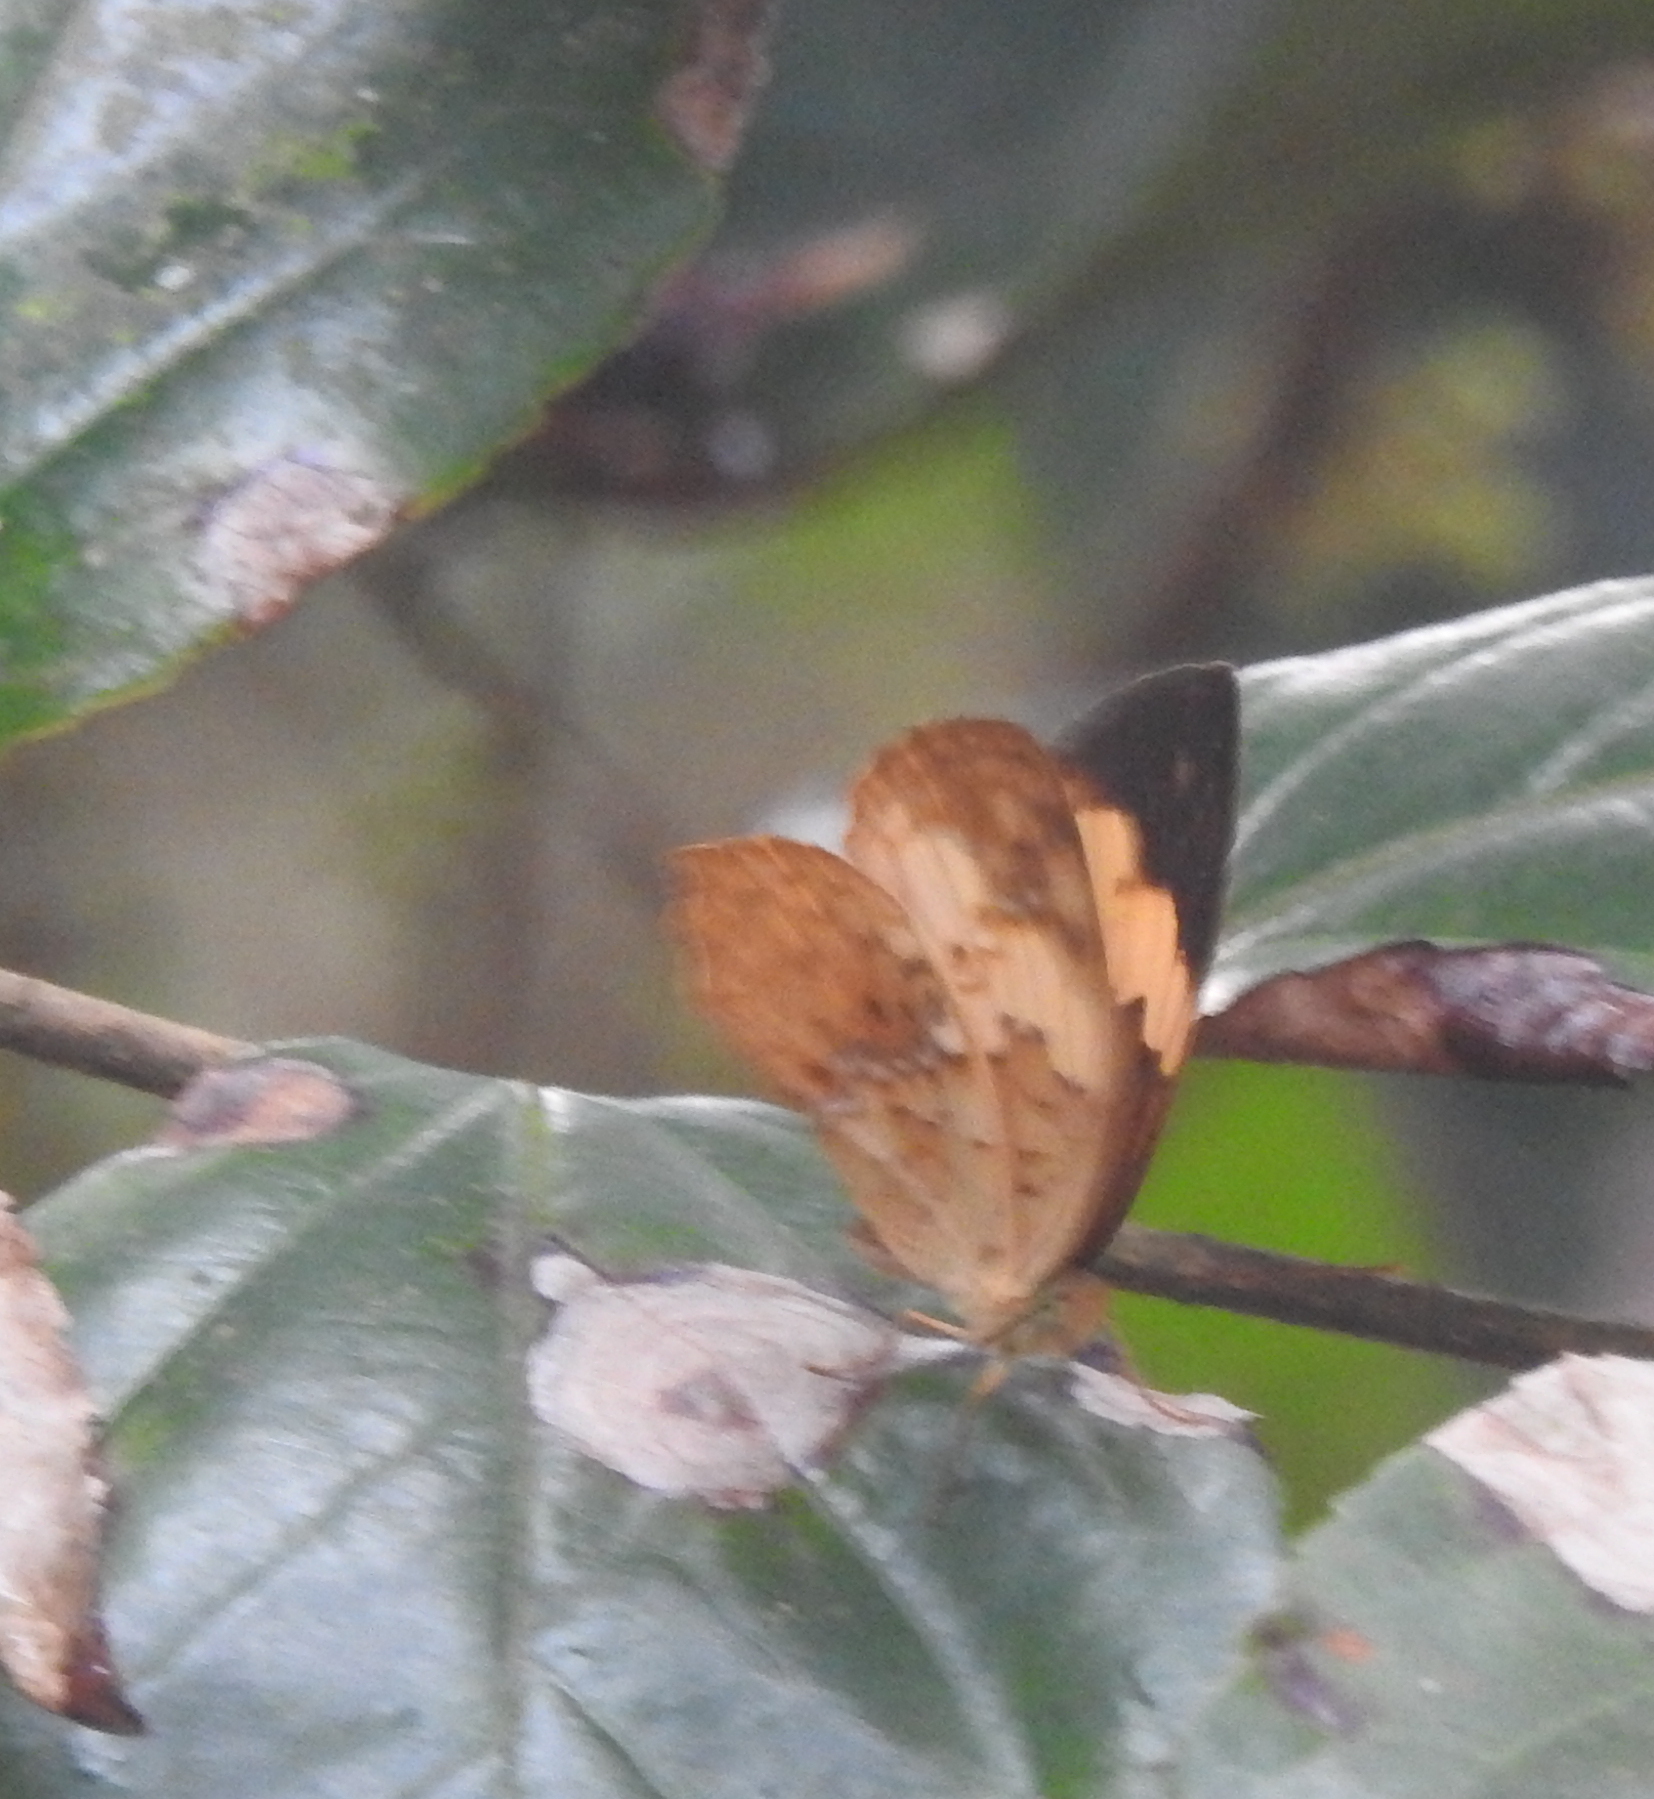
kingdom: Animalia
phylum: Arthropoda
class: Insecta
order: Lepidoptera
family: Nymphalidae
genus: Cupha
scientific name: Cupha erymanthis
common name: Rustic
